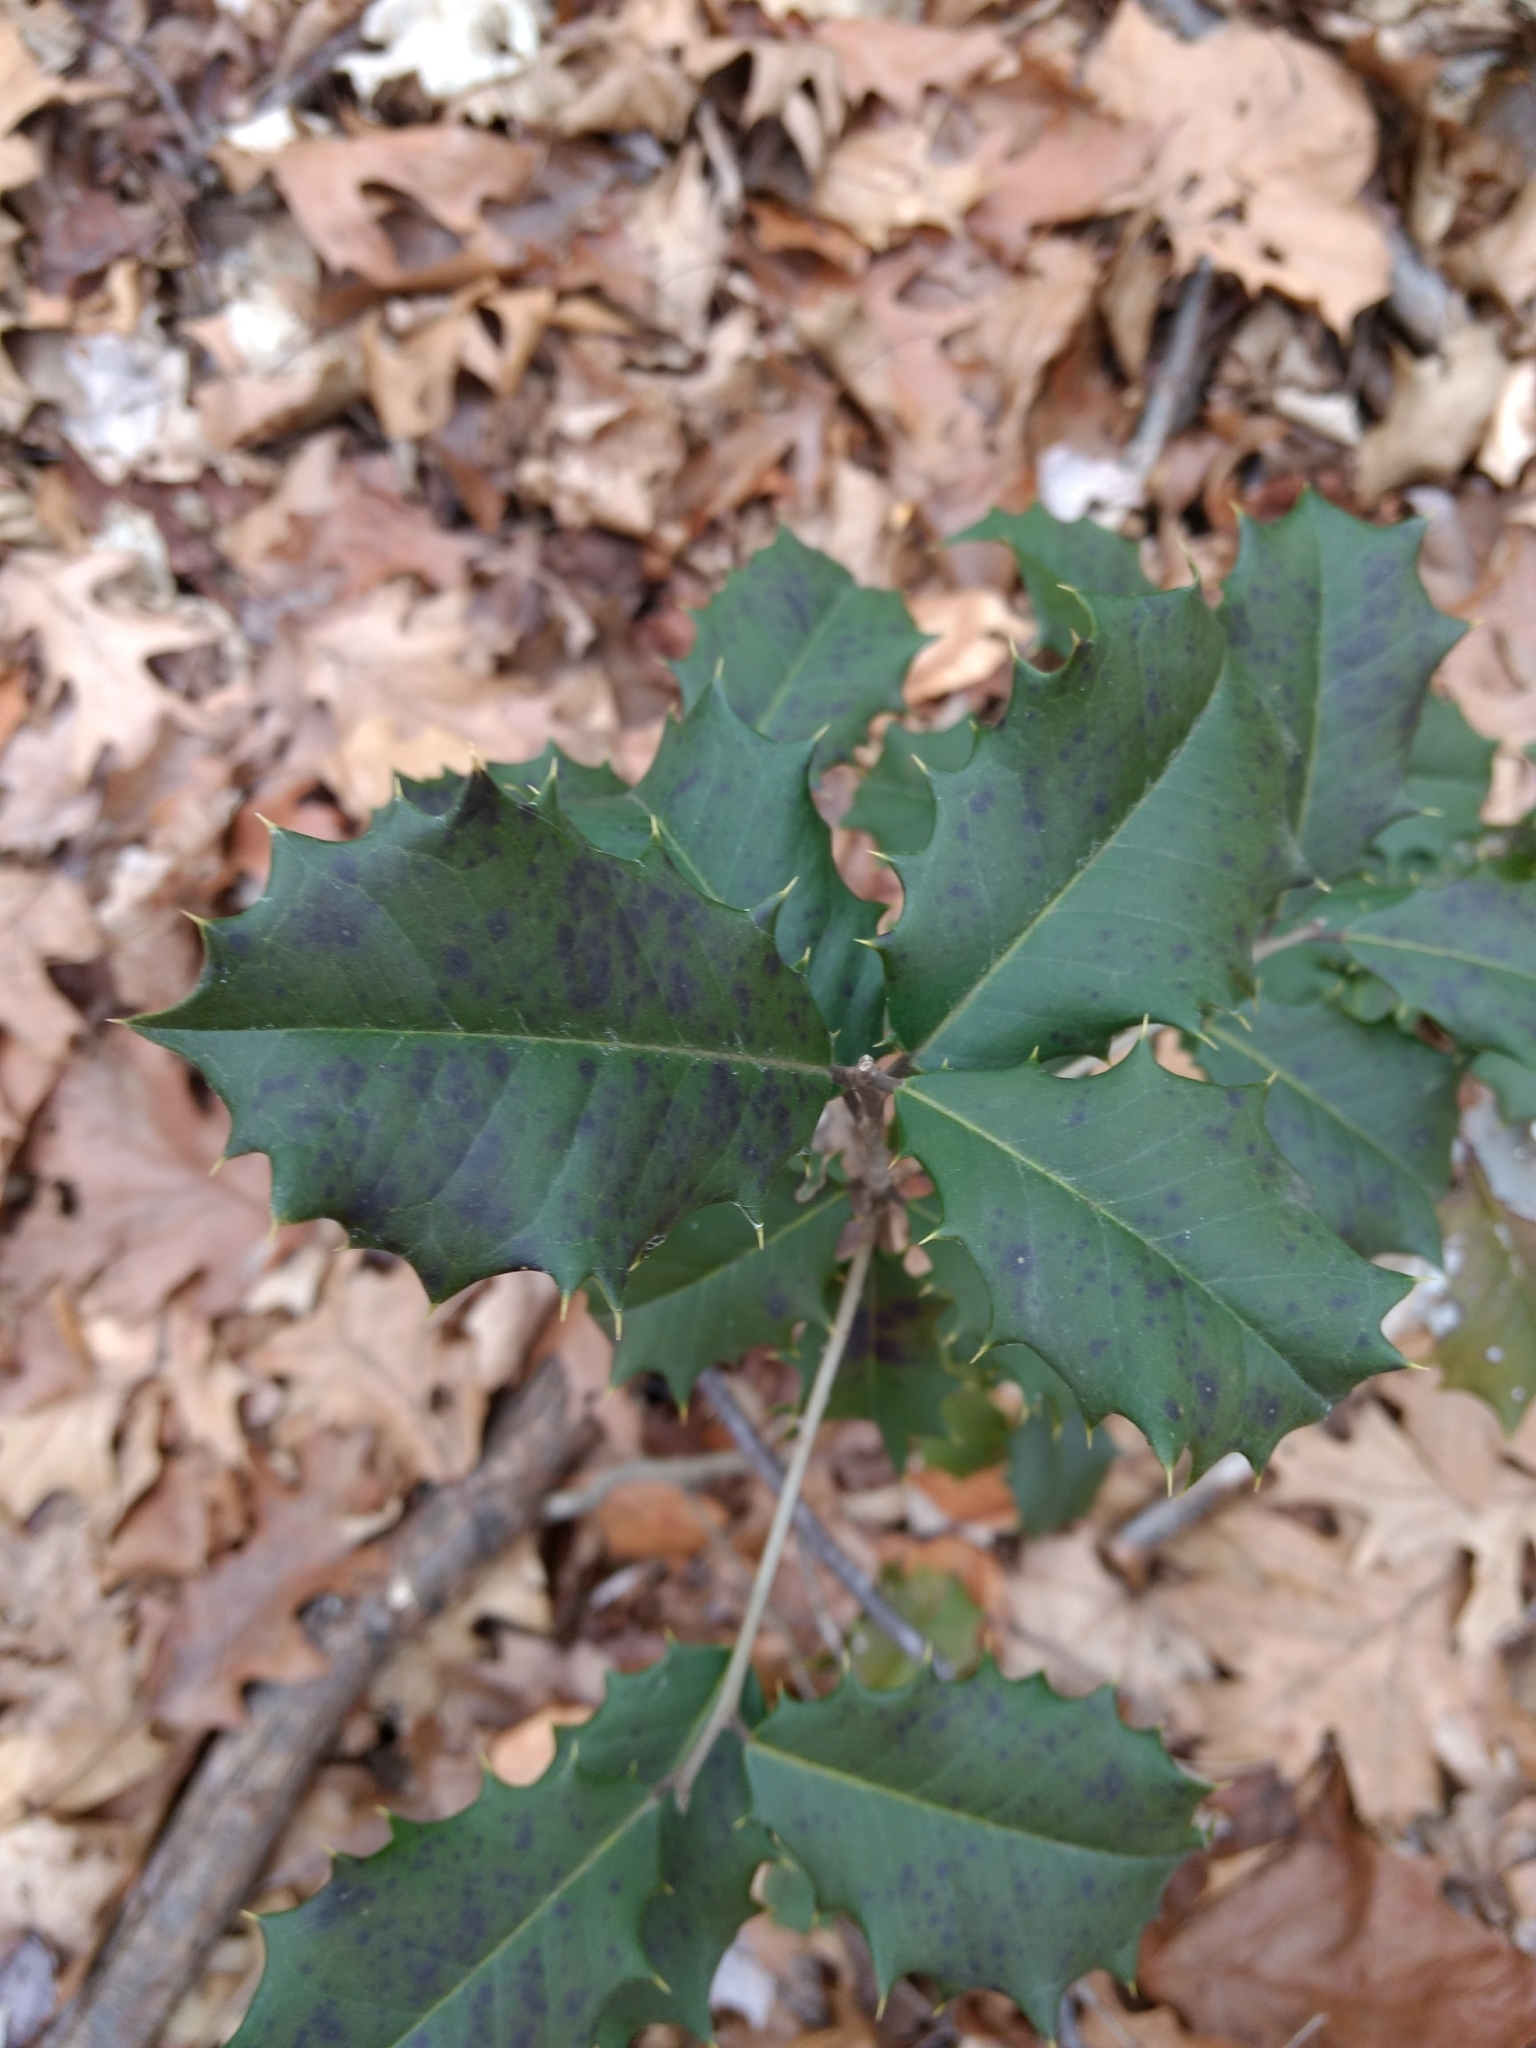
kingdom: Plantae
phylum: Tracheophyta
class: Magnoliopsida
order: Aquifoliales
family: Aquifoliaceae
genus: Ilex
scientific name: Ilex opaca
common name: American holly
